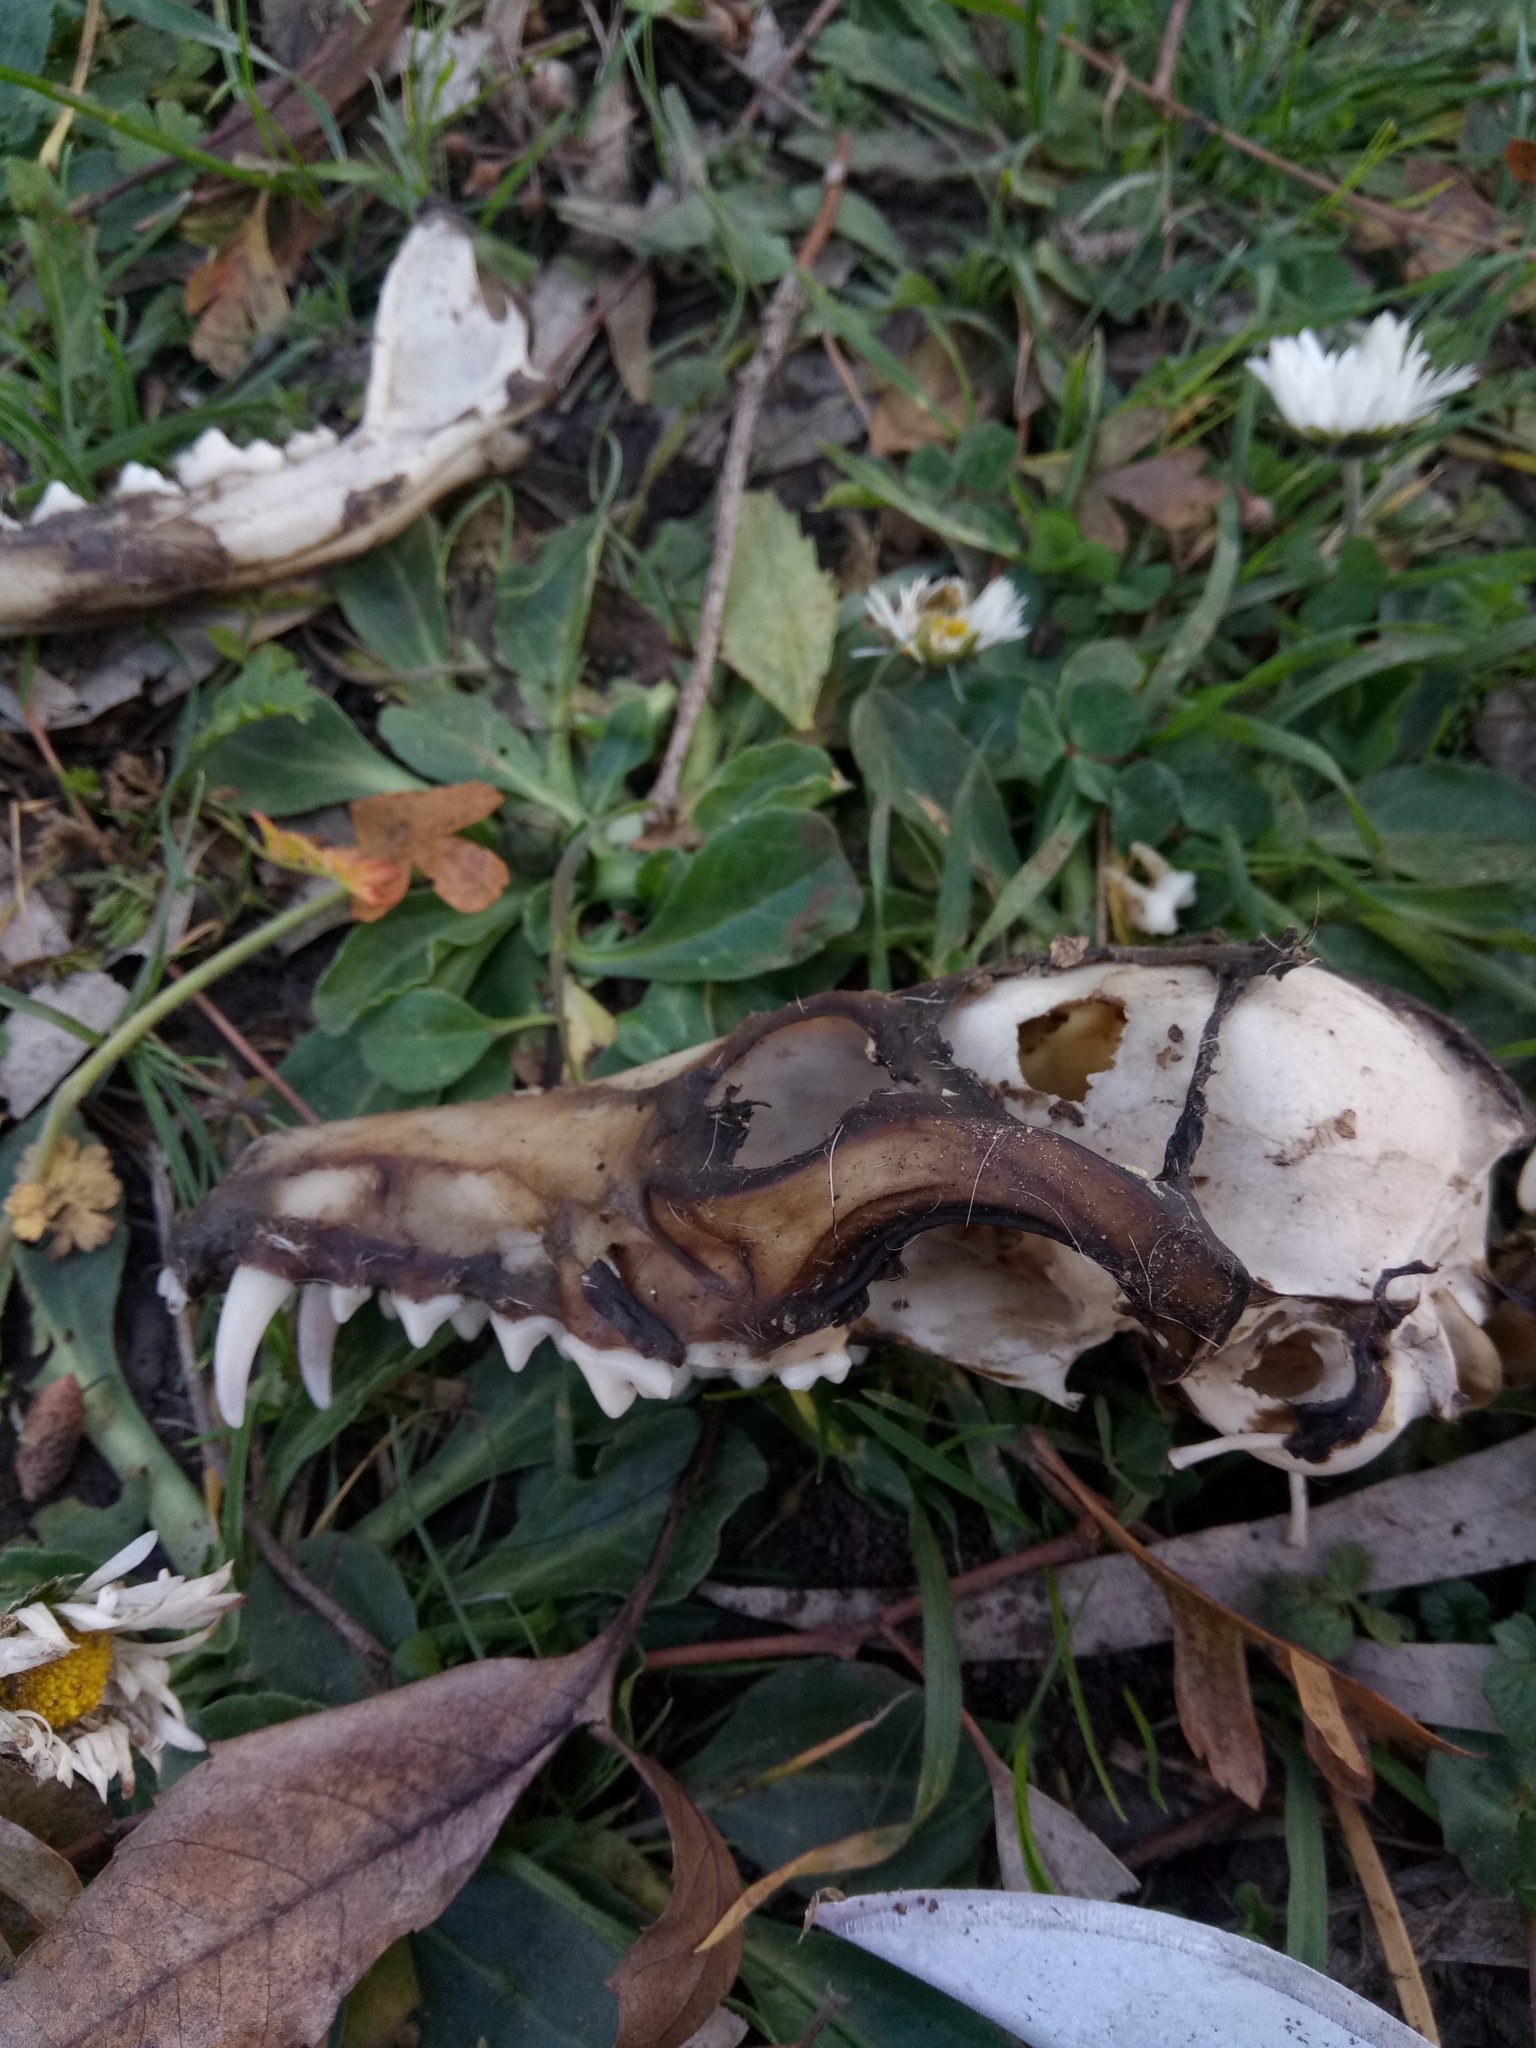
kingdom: Animalia
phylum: Chordata
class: Mammalia
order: Carnivora
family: Canidae
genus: Vulpes
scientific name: Vulpes vulpes
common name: Red fox
